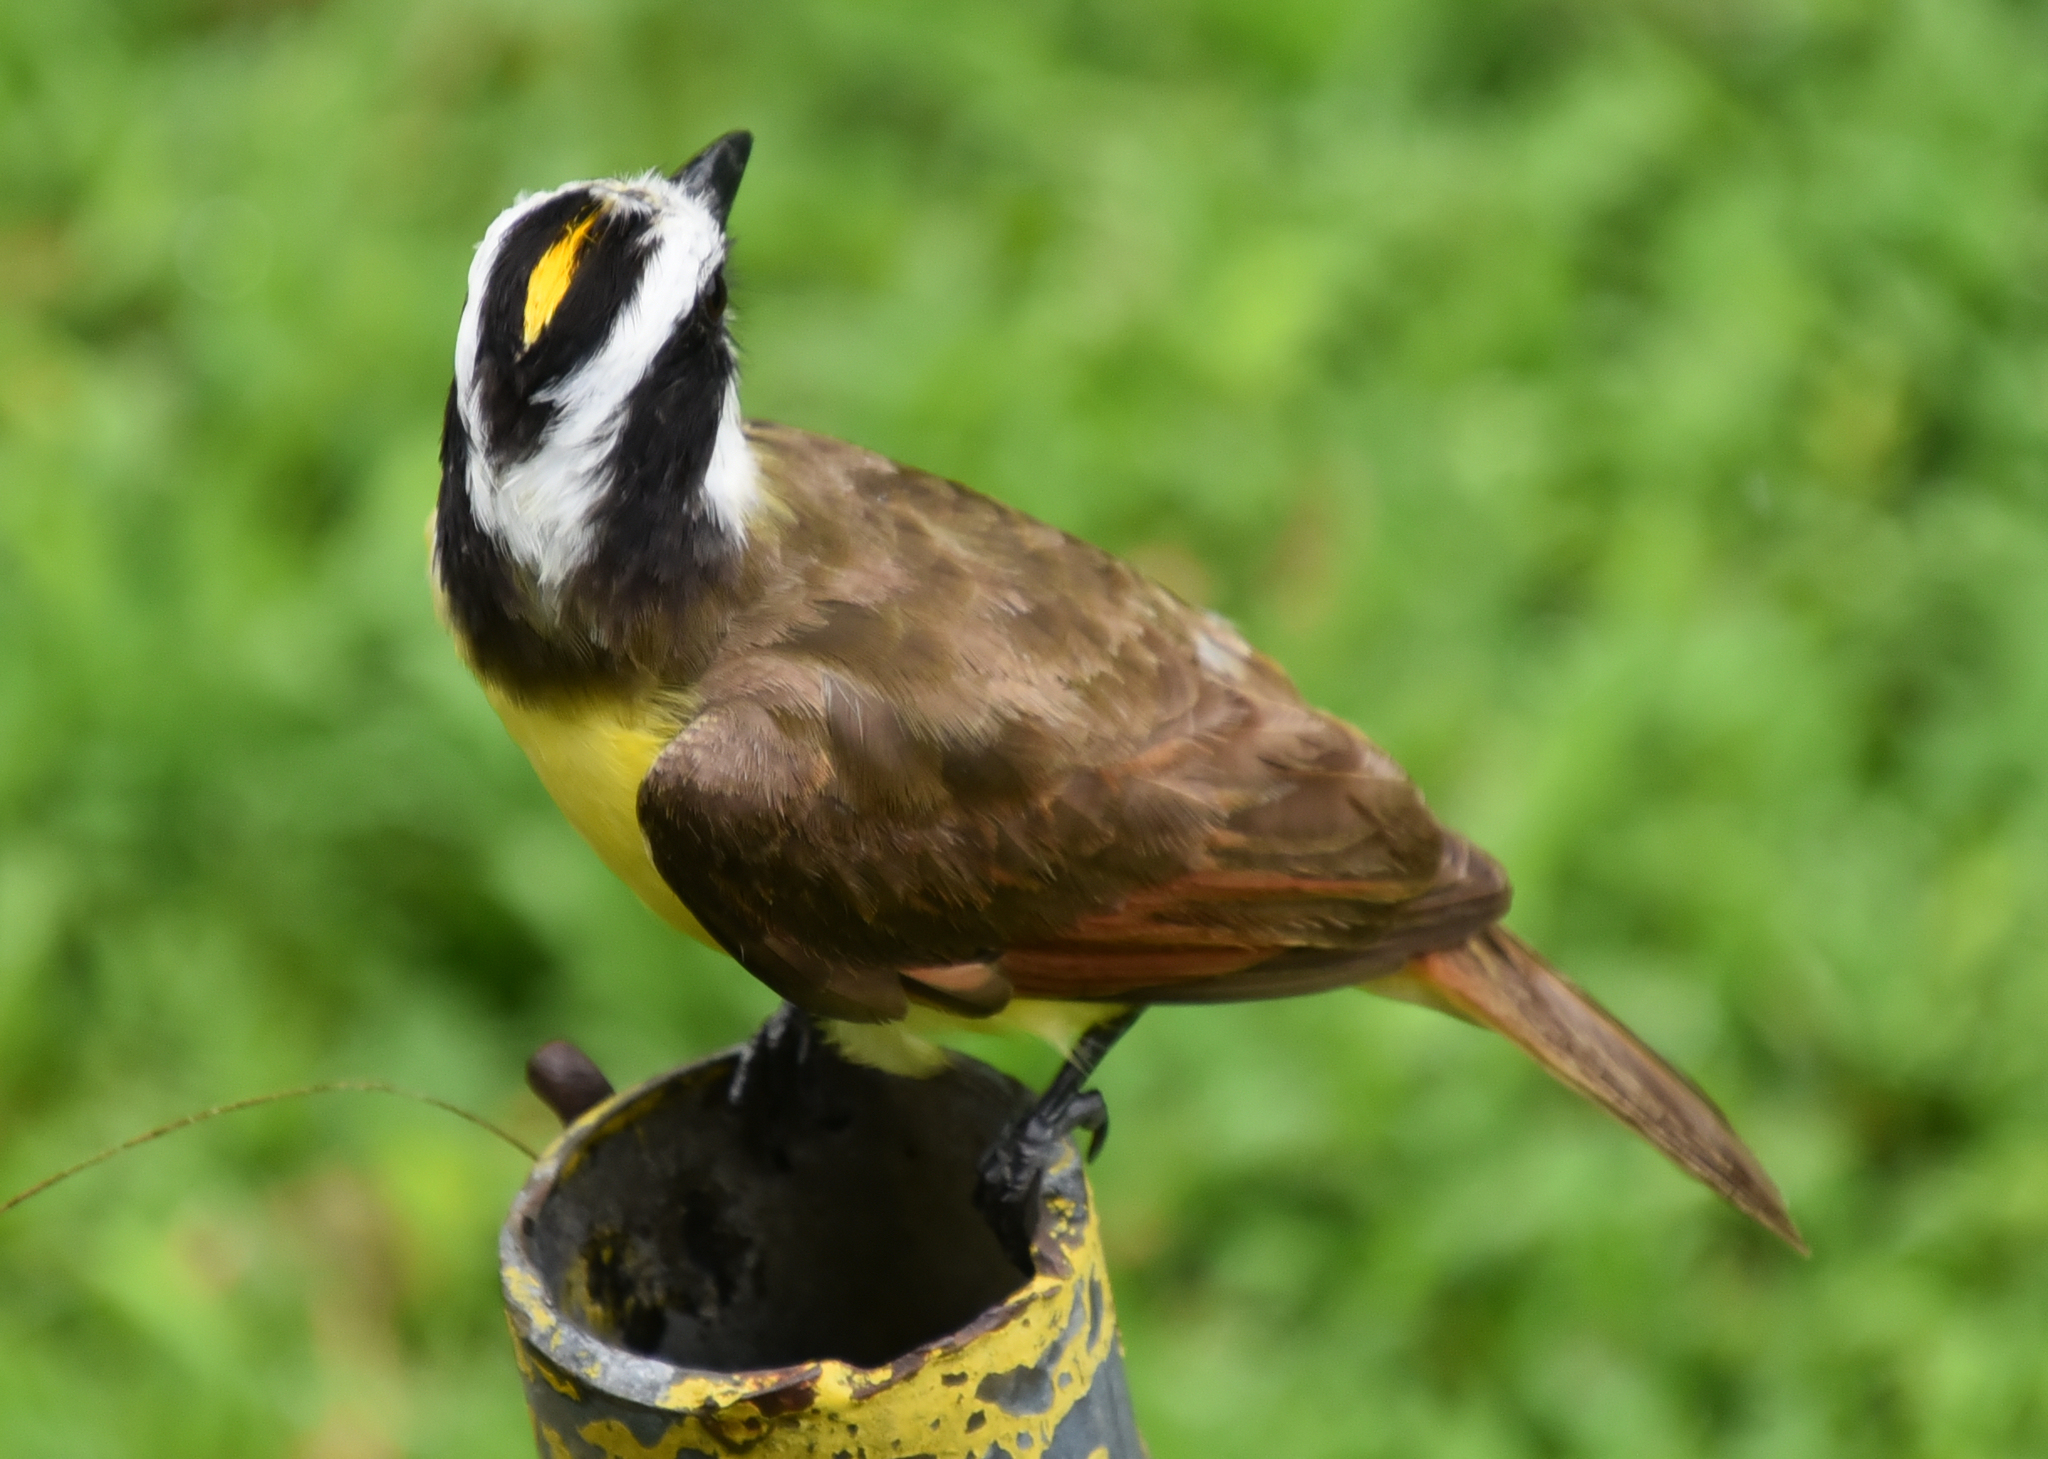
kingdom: Animalia
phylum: Chordata
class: Aves
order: Passeriformes
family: Tyrannidae
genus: Pitangus
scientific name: Pitangus sulphuratus
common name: Great kiskadee
